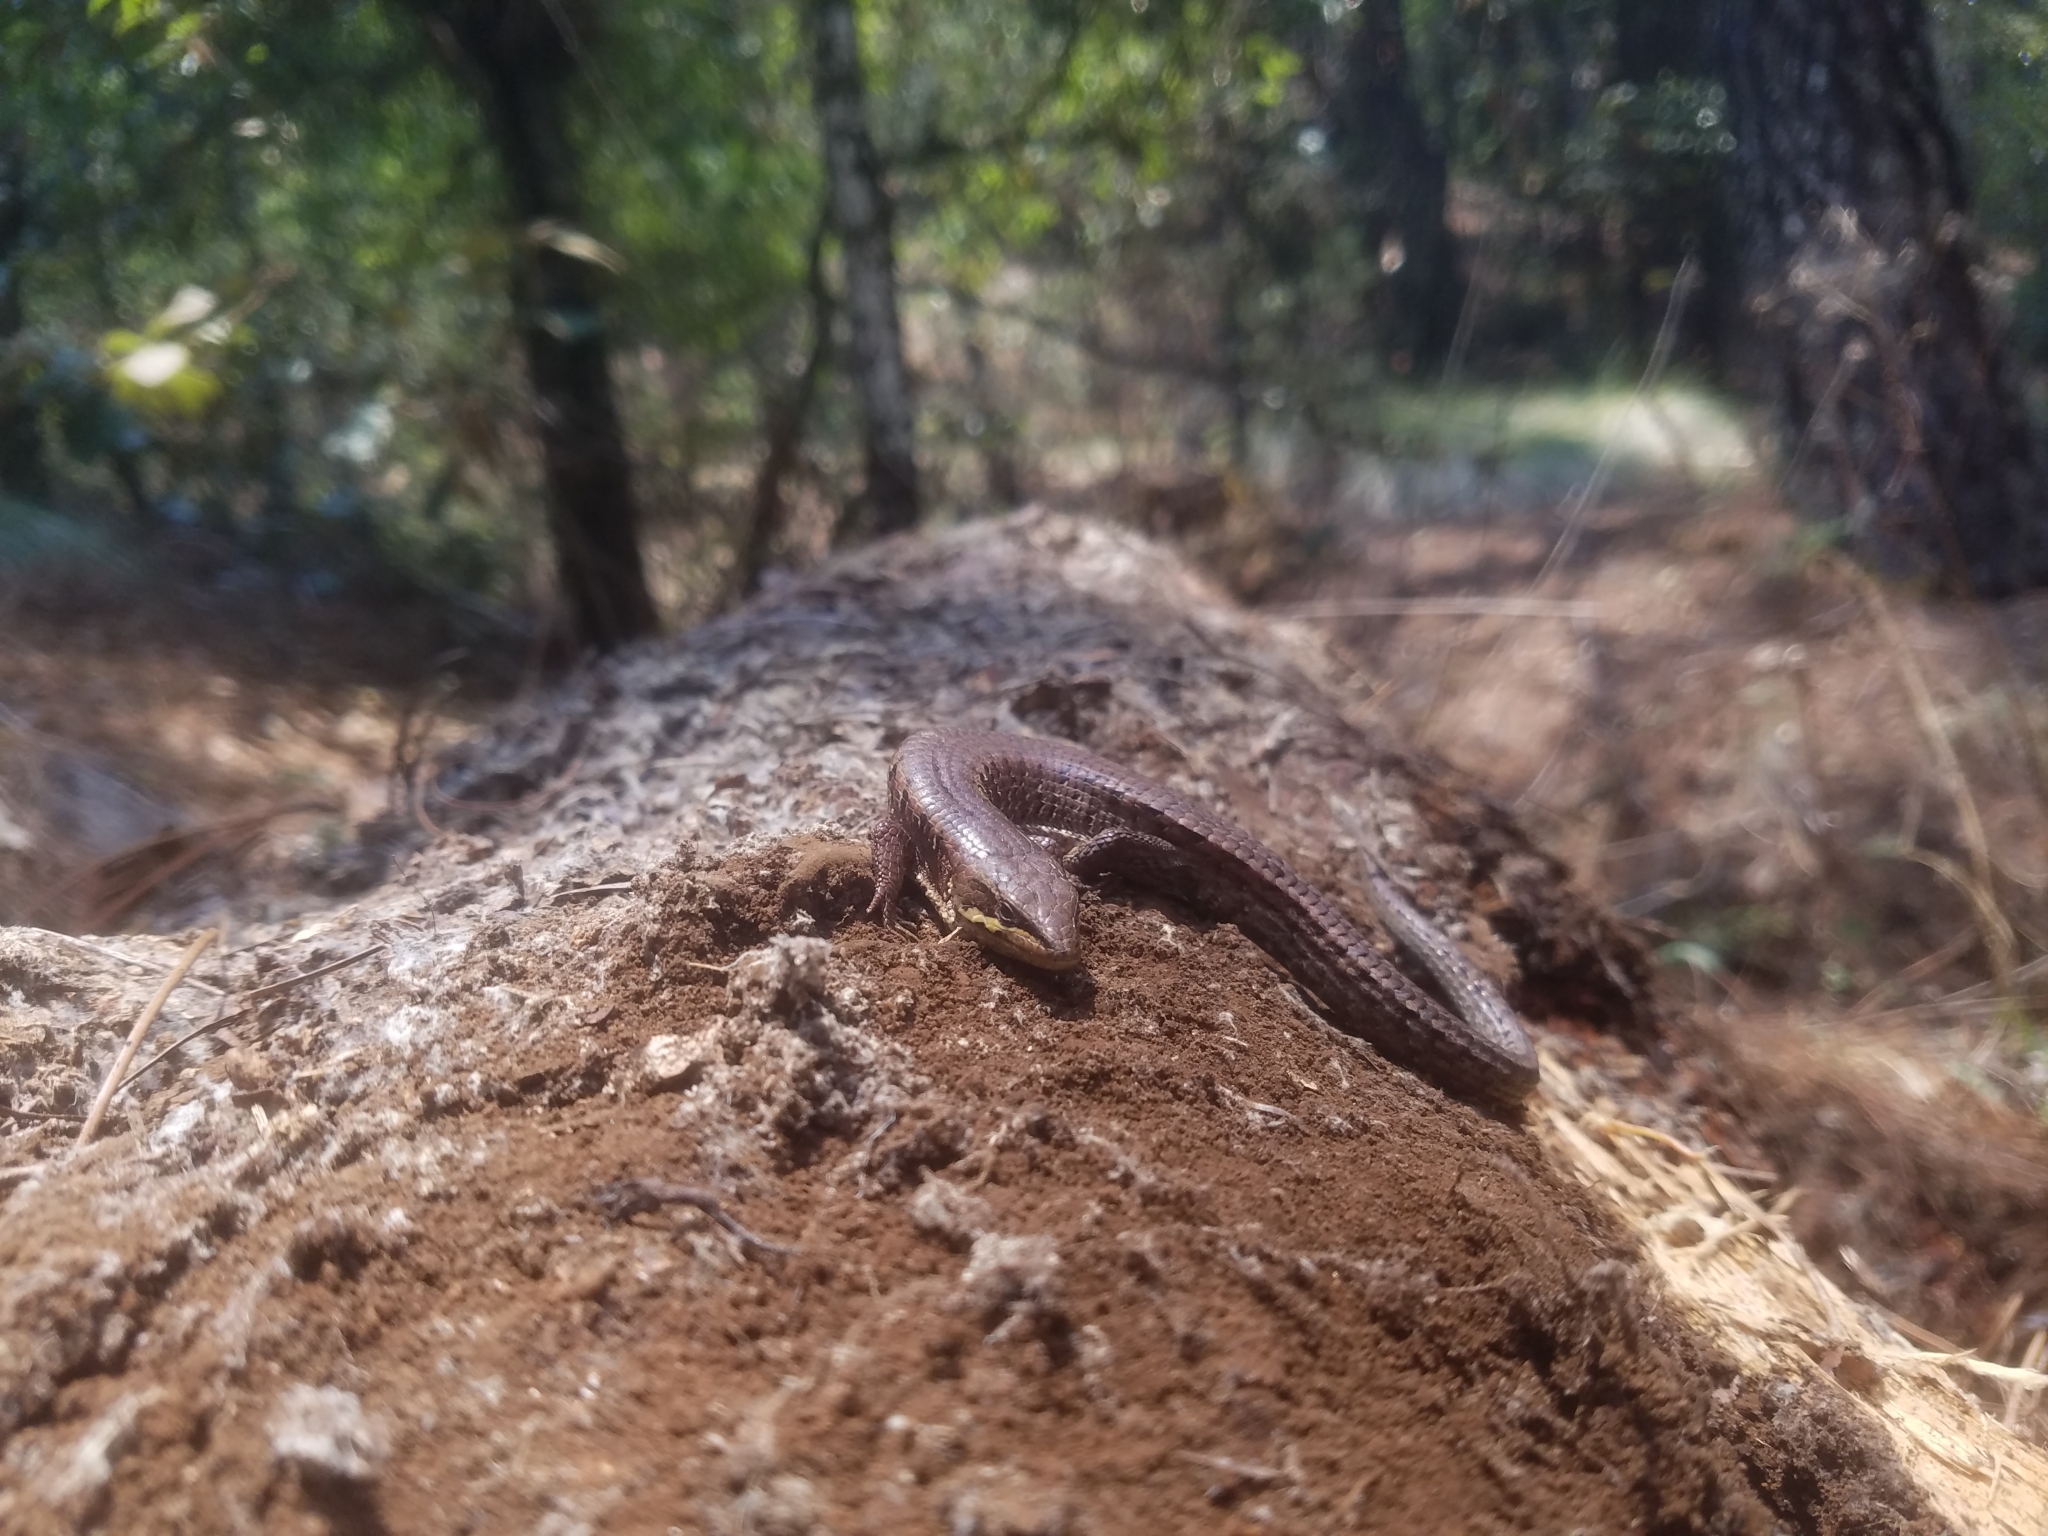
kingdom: Animalia
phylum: Chordata
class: Squamata
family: Anguidae
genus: Abronia
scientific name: Abronia gadovii
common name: Gadow's alligator lizard
